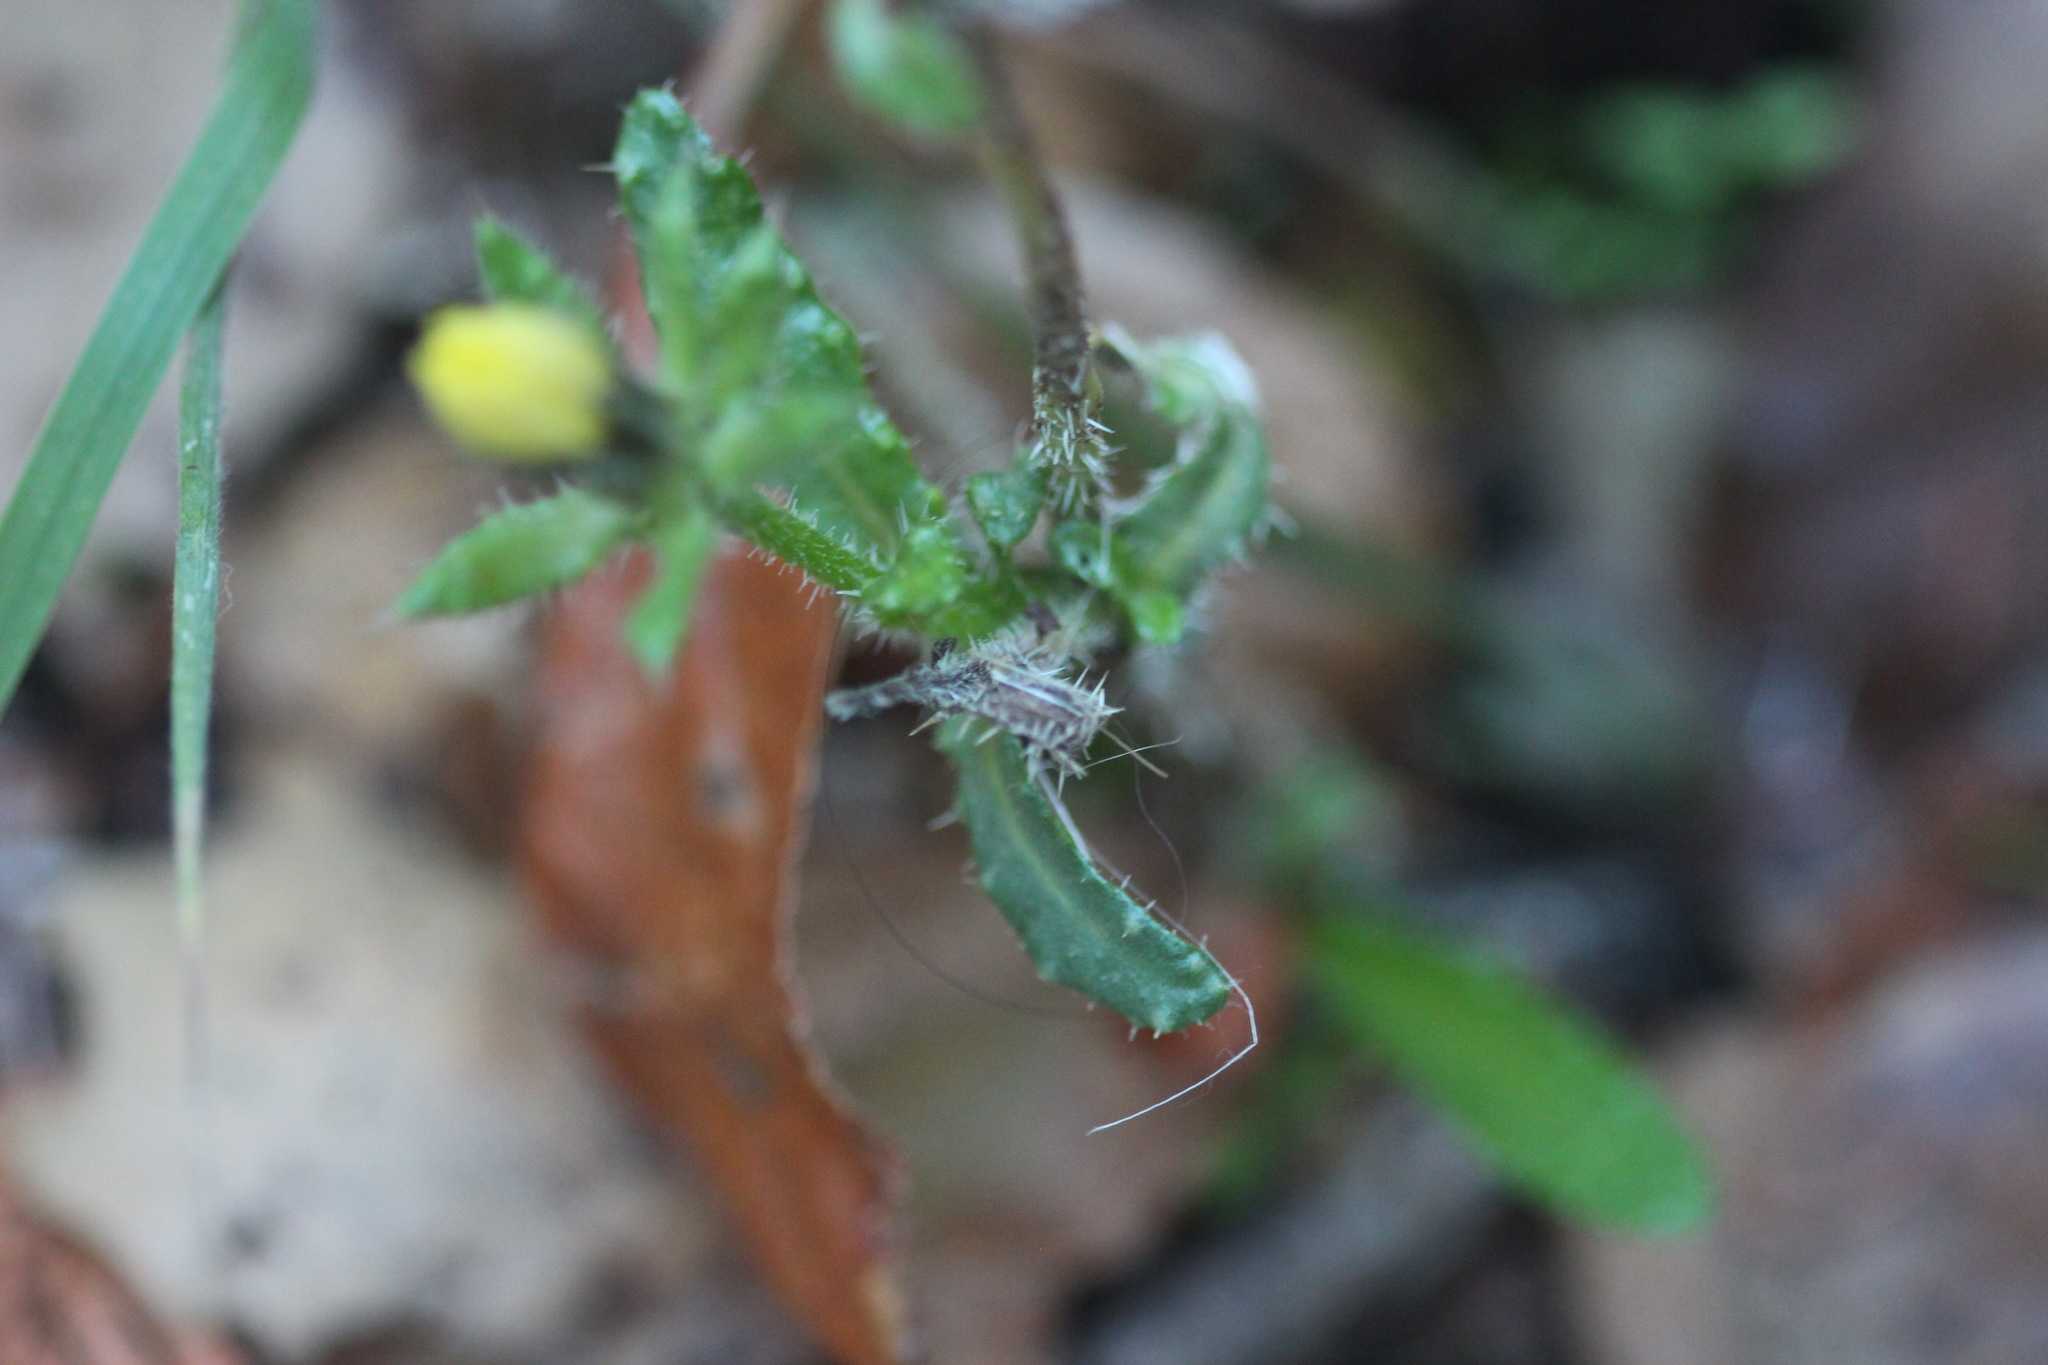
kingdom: Plantae
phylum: Tracheophyta
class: Magnoliopsida
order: Asterales
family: Asteraceae
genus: Helminthotheca
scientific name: Helminthotheca echioides
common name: Ox-tongue
